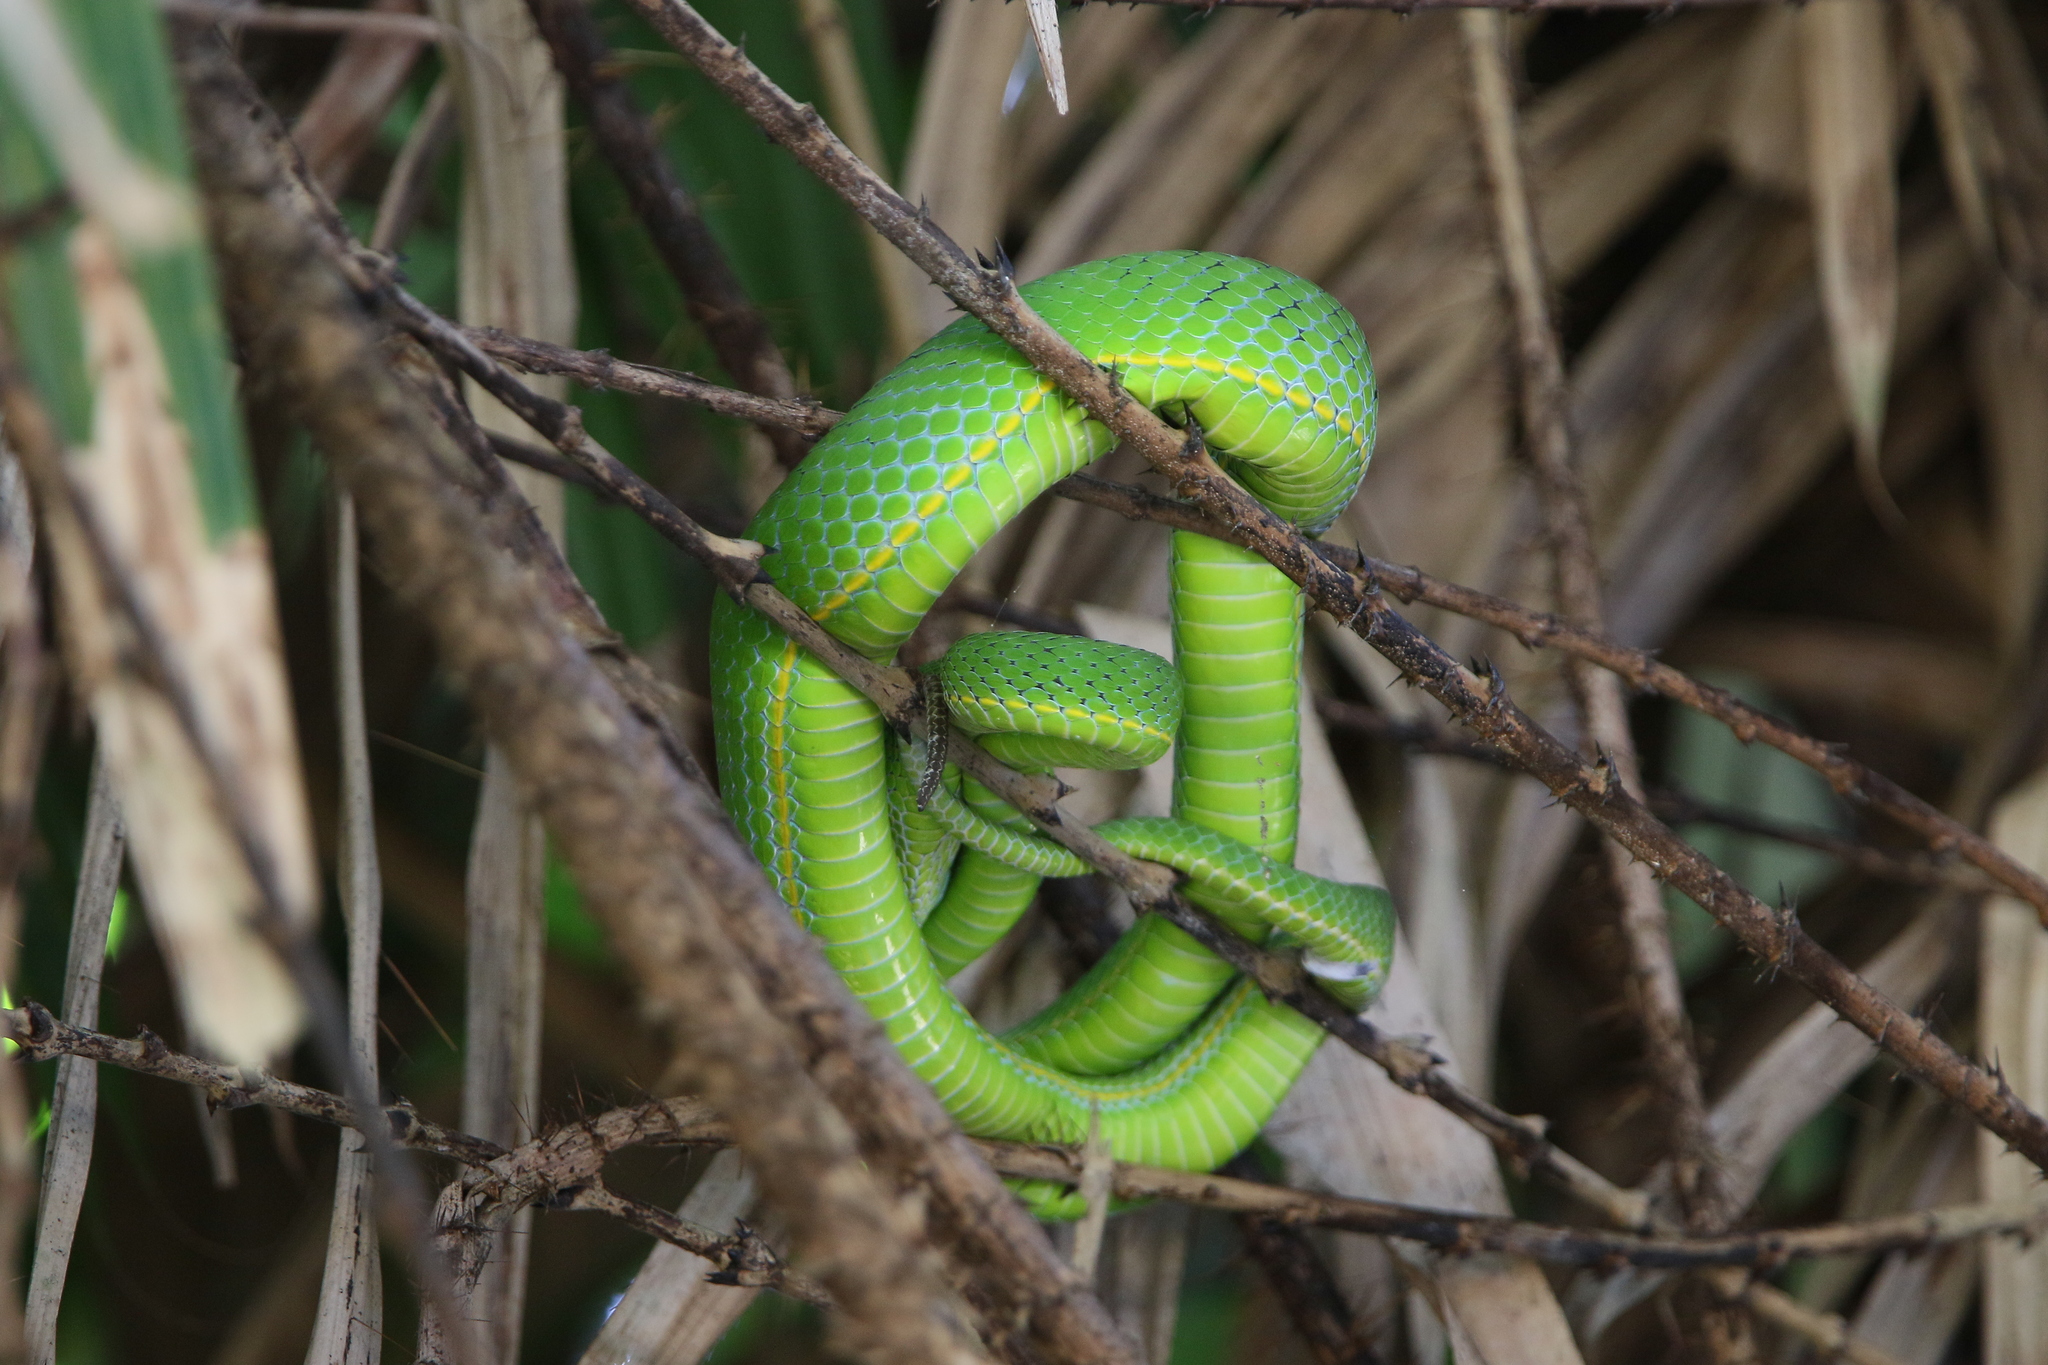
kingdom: Animalia
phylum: Chordata
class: Squamata
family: Viperidae
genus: Trimeresurus
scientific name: Trimeresurus vogeli
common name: Vogel's pit viper
